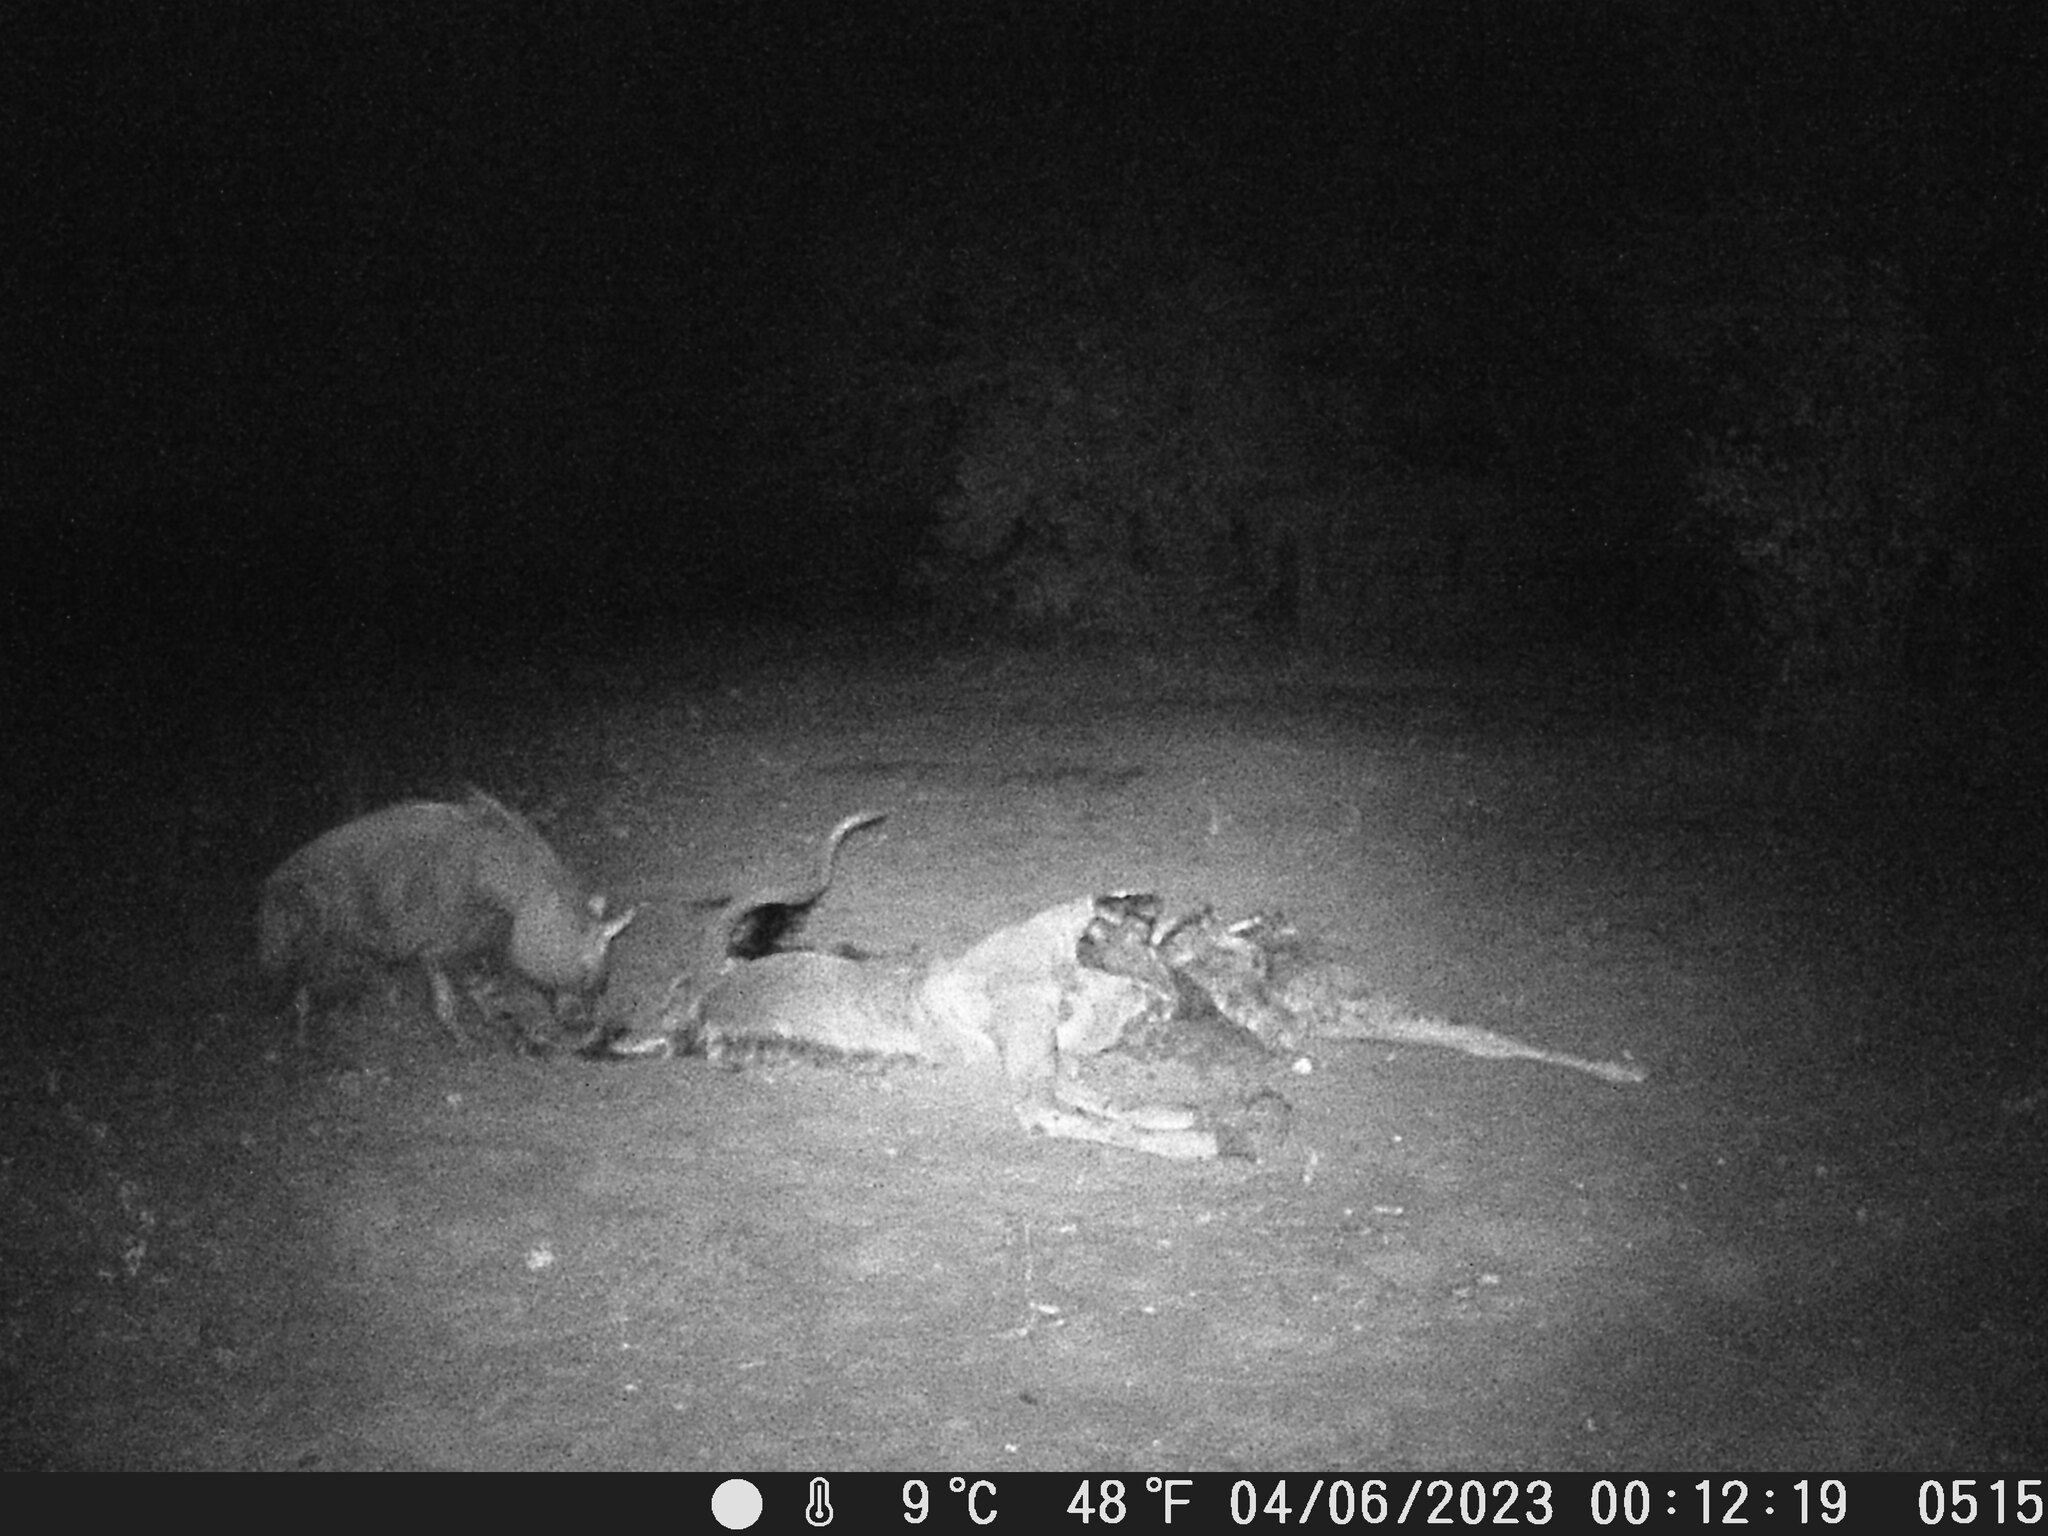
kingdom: Animalia
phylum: Chordata
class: Mammalia
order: Carnivora
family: Hyaenidae
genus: Hyaena
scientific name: Hyaena brunnea
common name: Brown hyena
